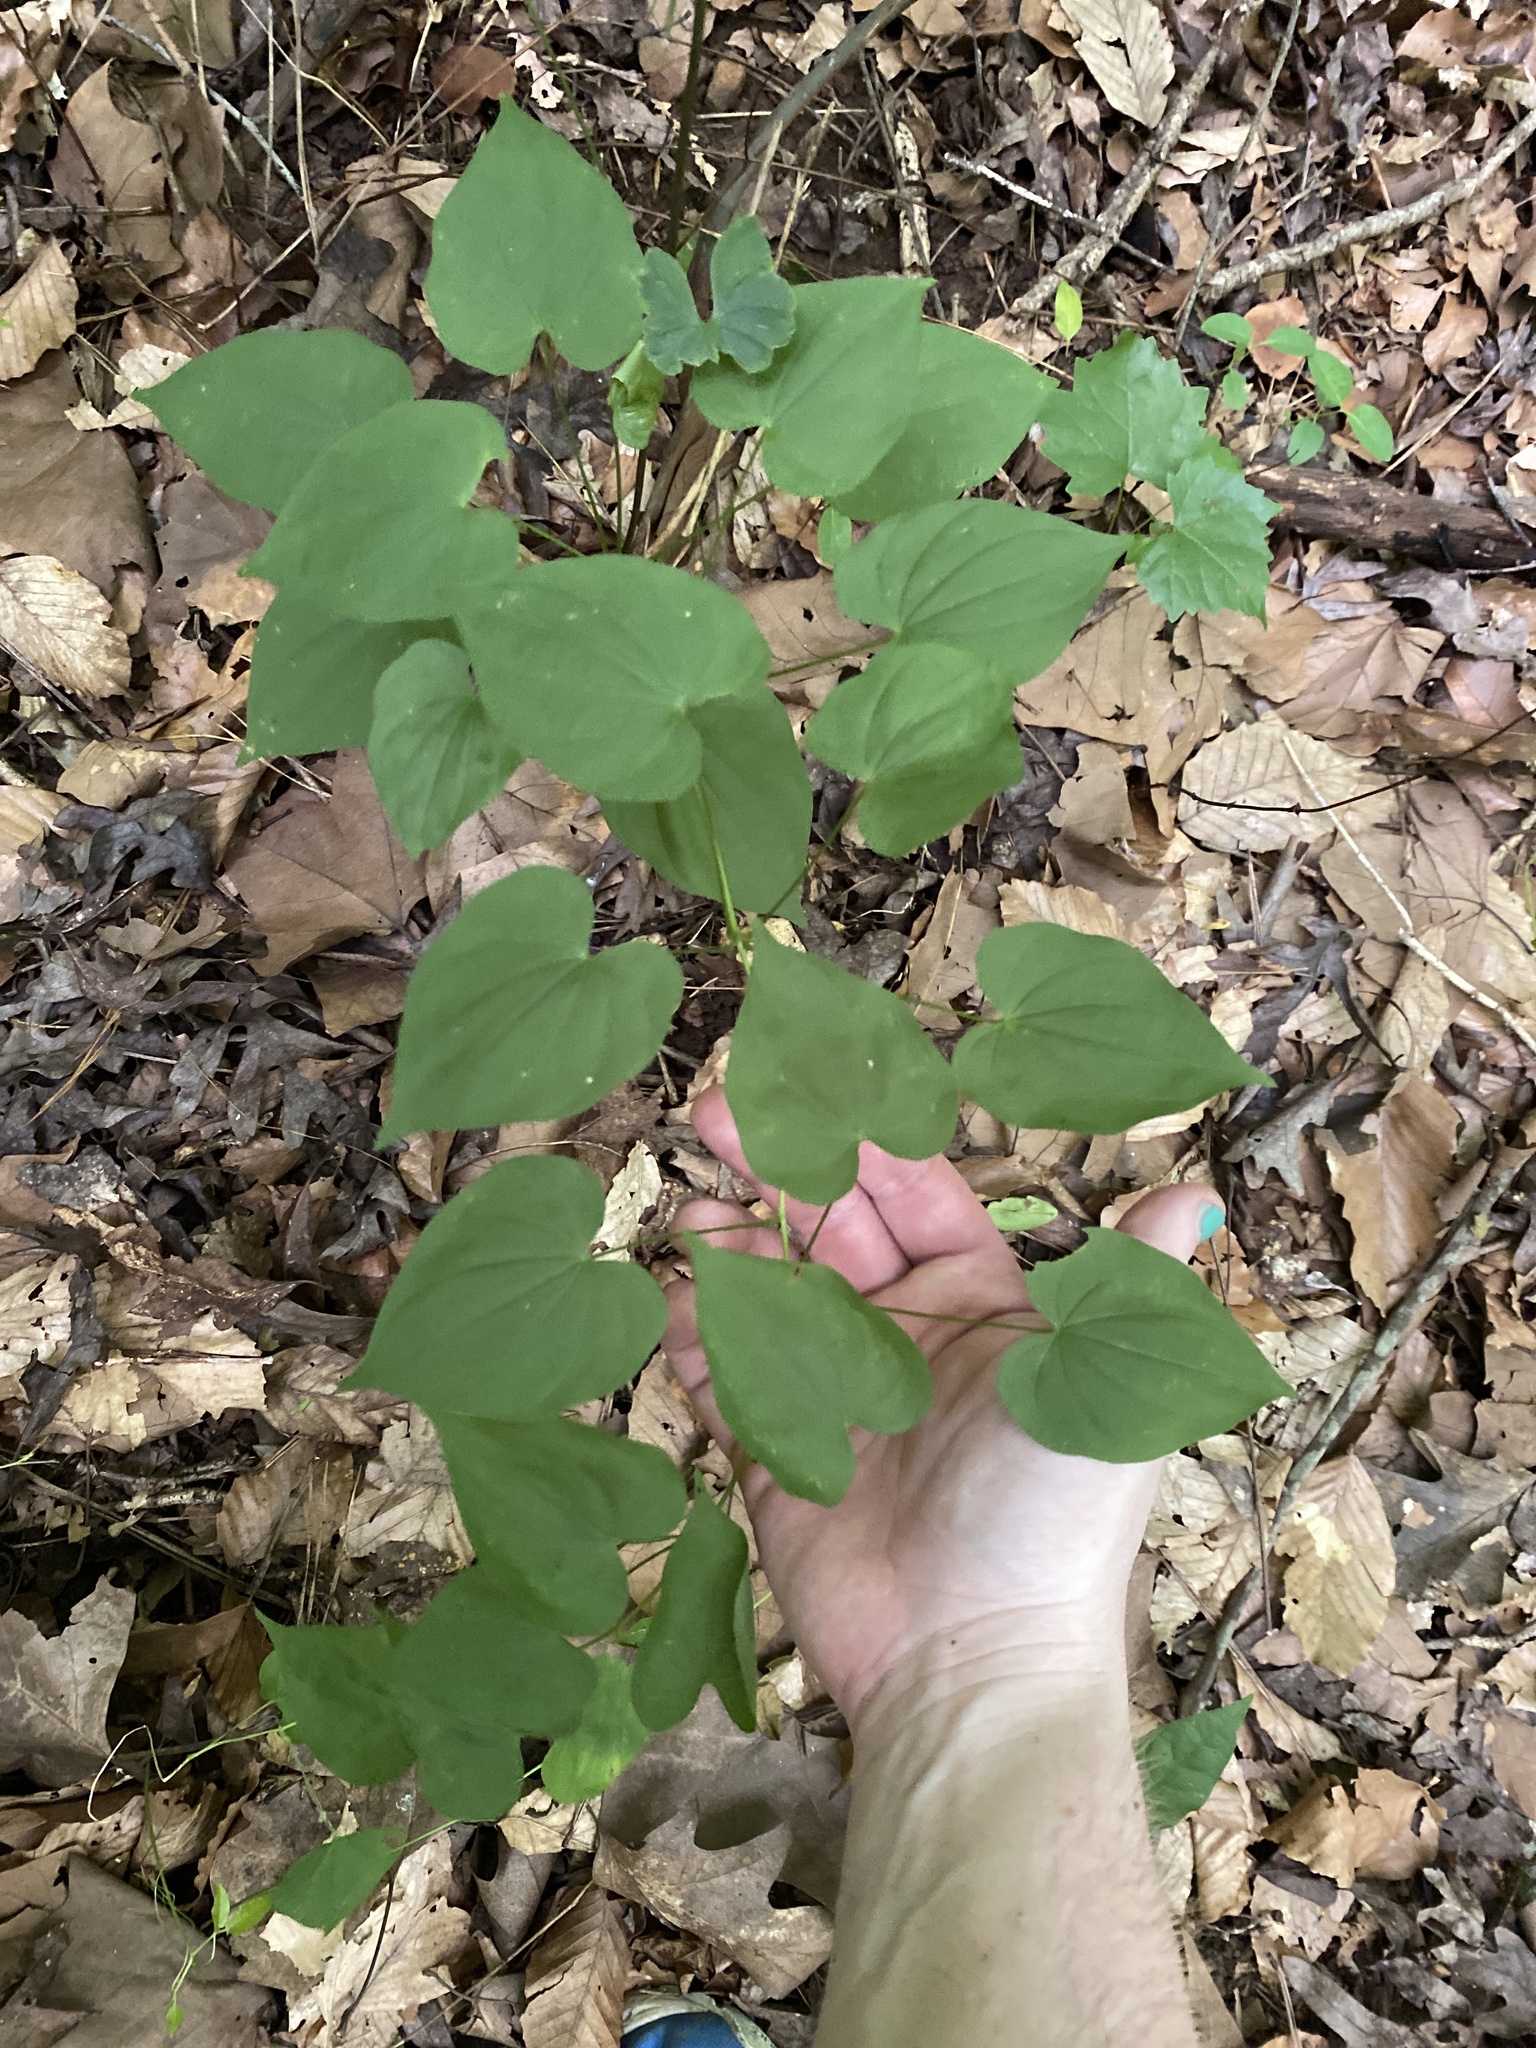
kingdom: Plantae
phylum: Tracheophyta
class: Liliopsida
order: Dioscoreales
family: Dioscoreaceae
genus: Dioscorea
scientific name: Dioscorea villosa
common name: Wild yam
